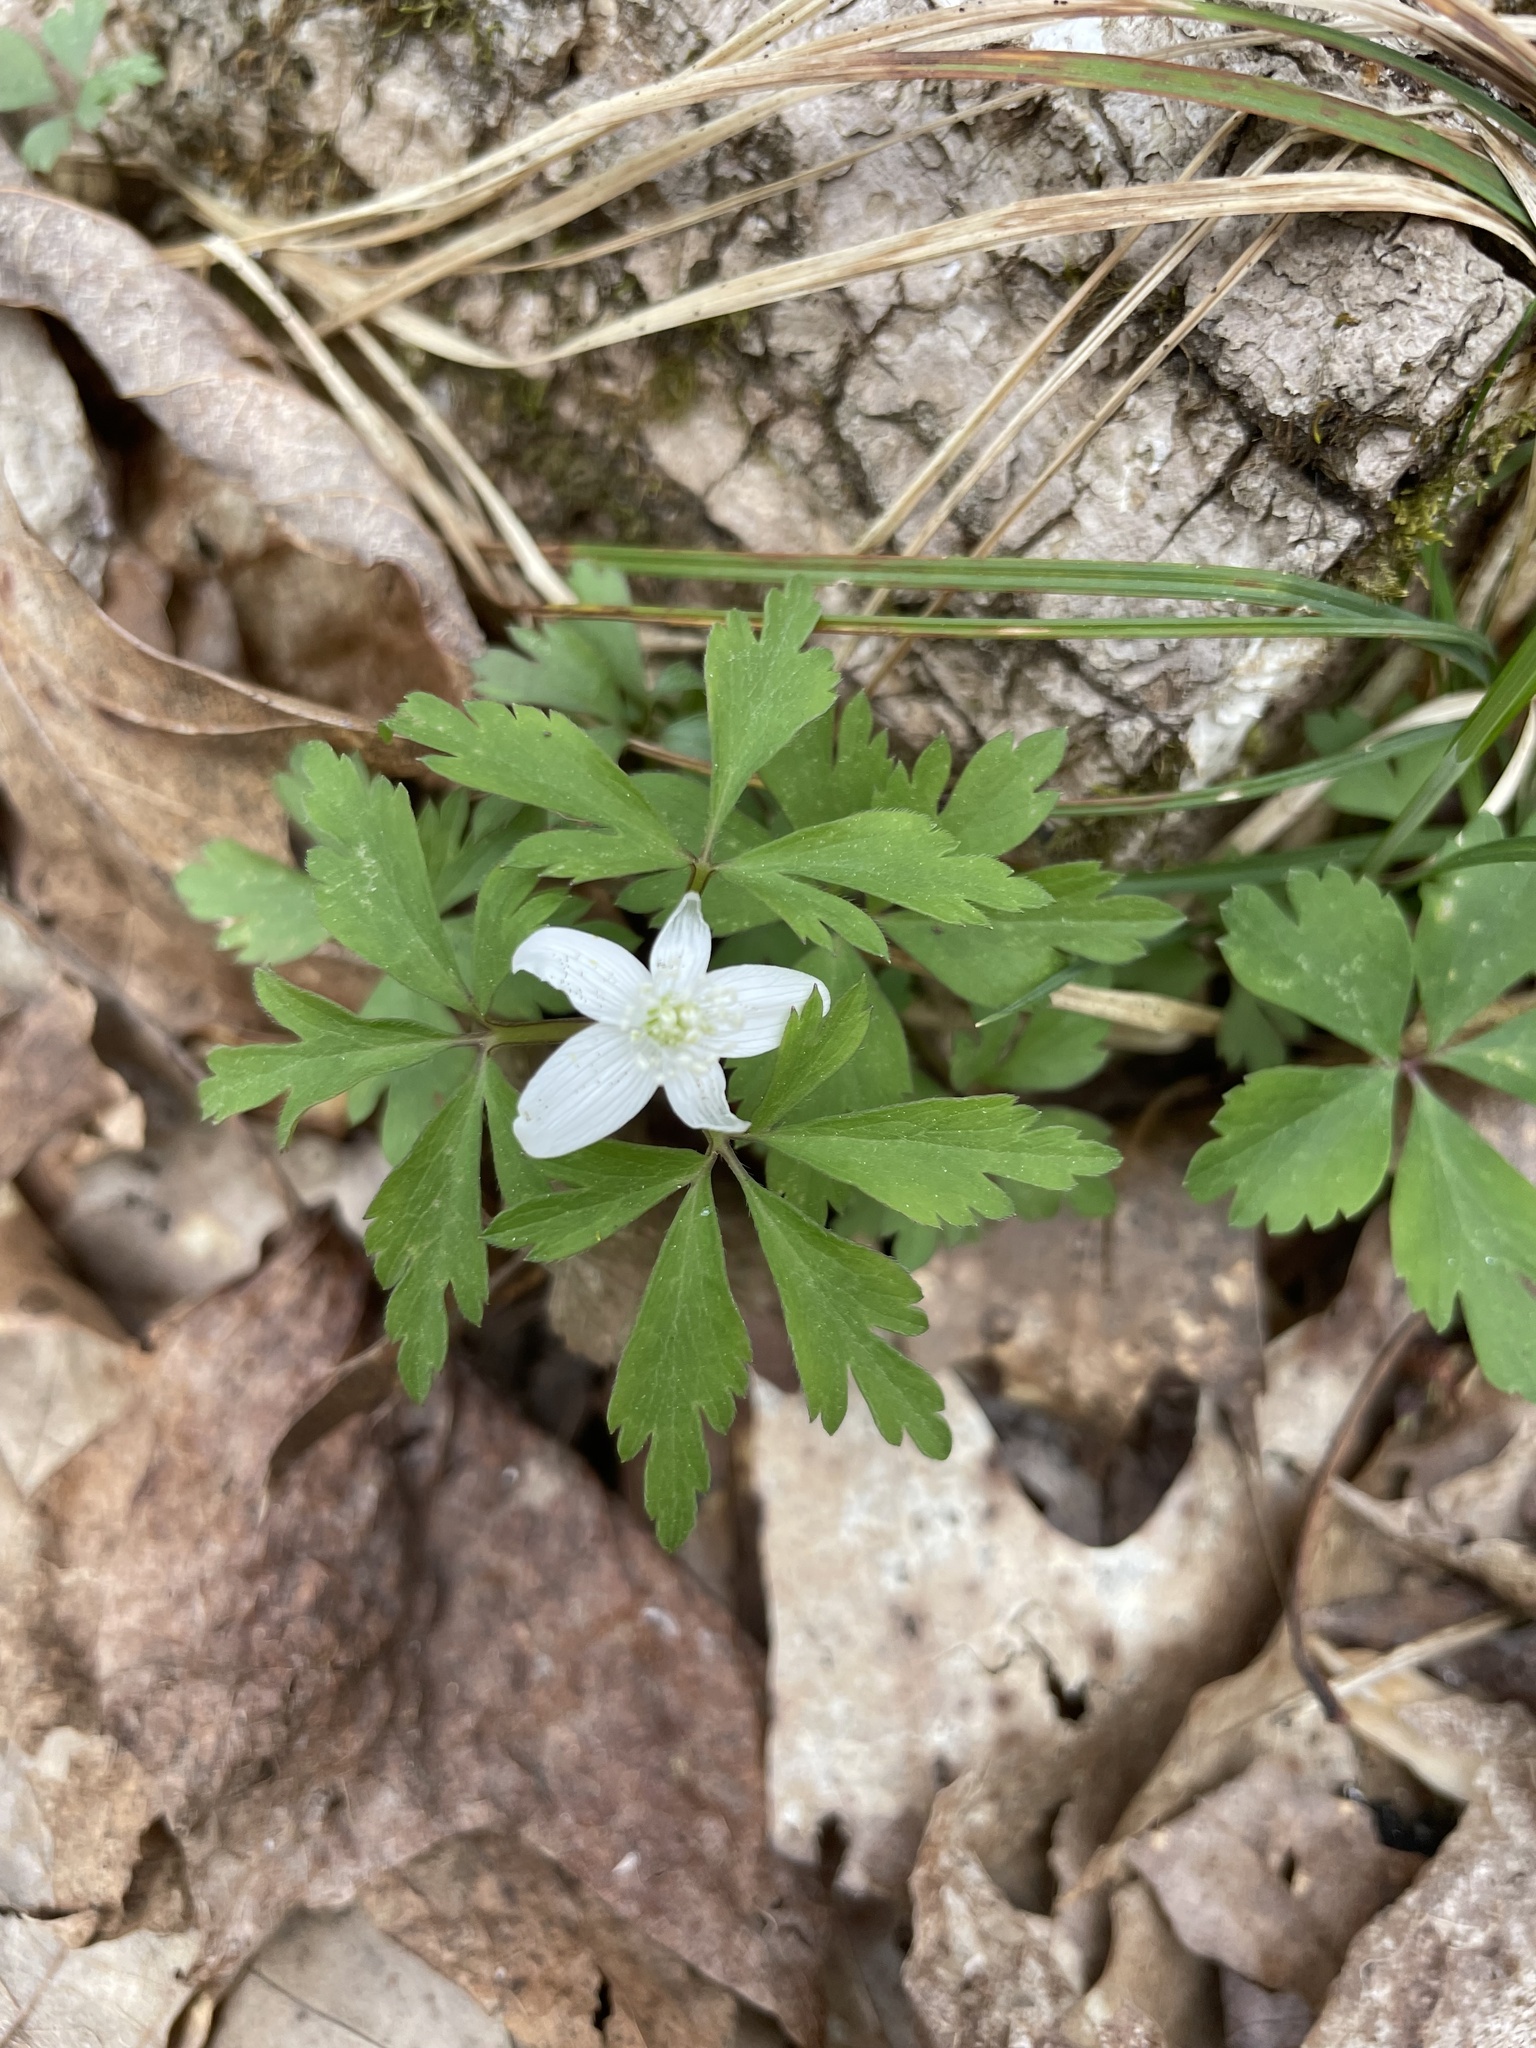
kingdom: Plantae
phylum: Tracheophyta
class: Magnoliopsida
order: Ranunculales
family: Ranunculaceae
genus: Anemone
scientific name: Anemone quinquefolia
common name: Wood anemone
